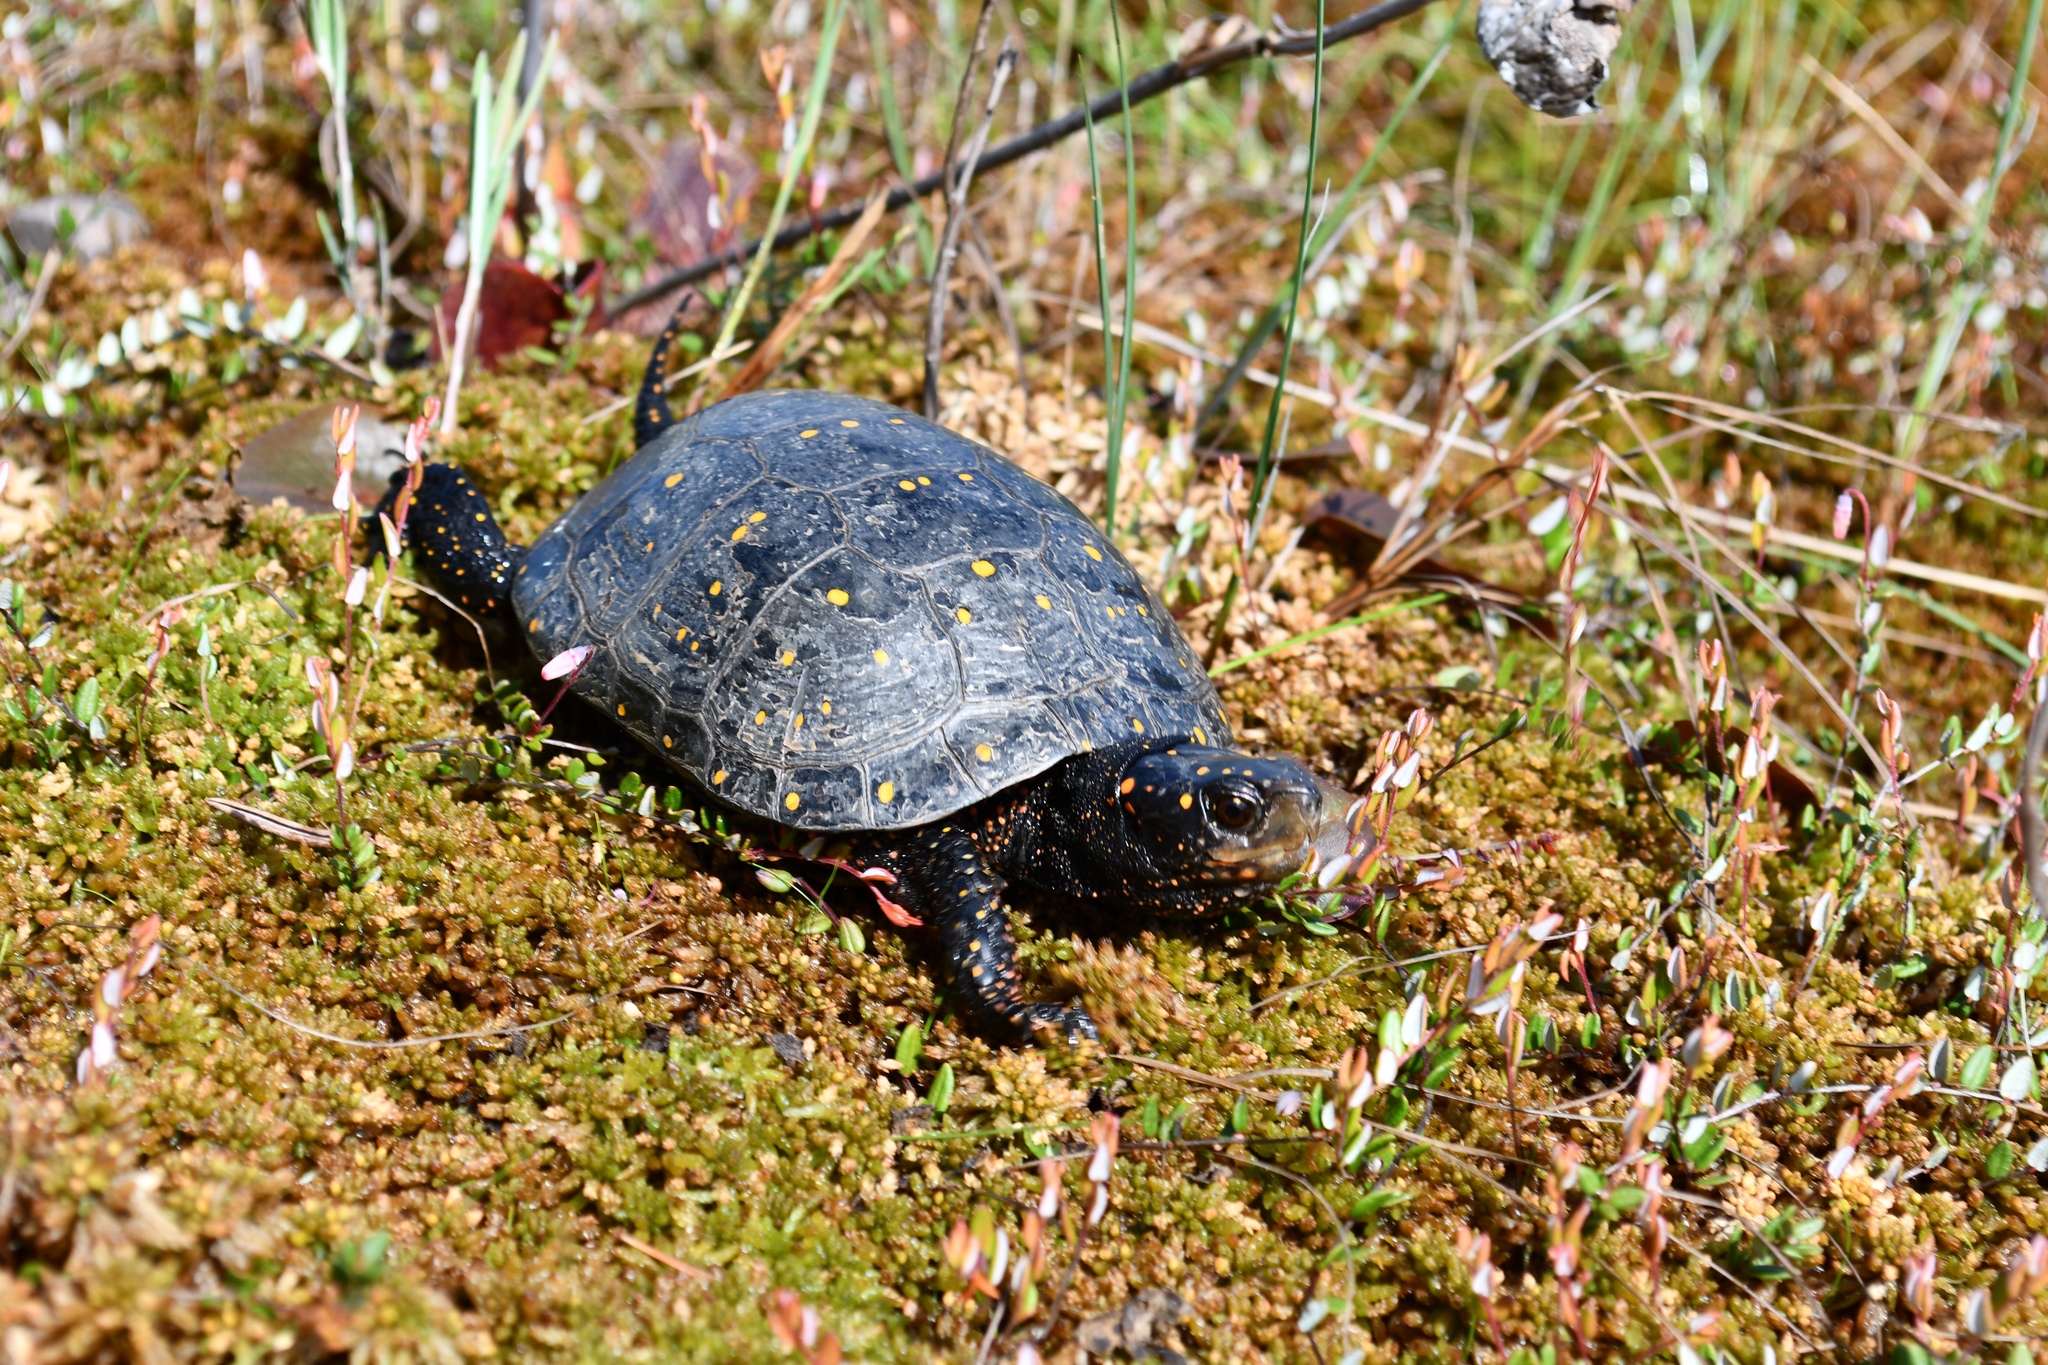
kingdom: Animalia
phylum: Chordata
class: Testudines
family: Emydidae
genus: Clemmys
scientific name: Clemmys guttata
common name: Spotted turtle
